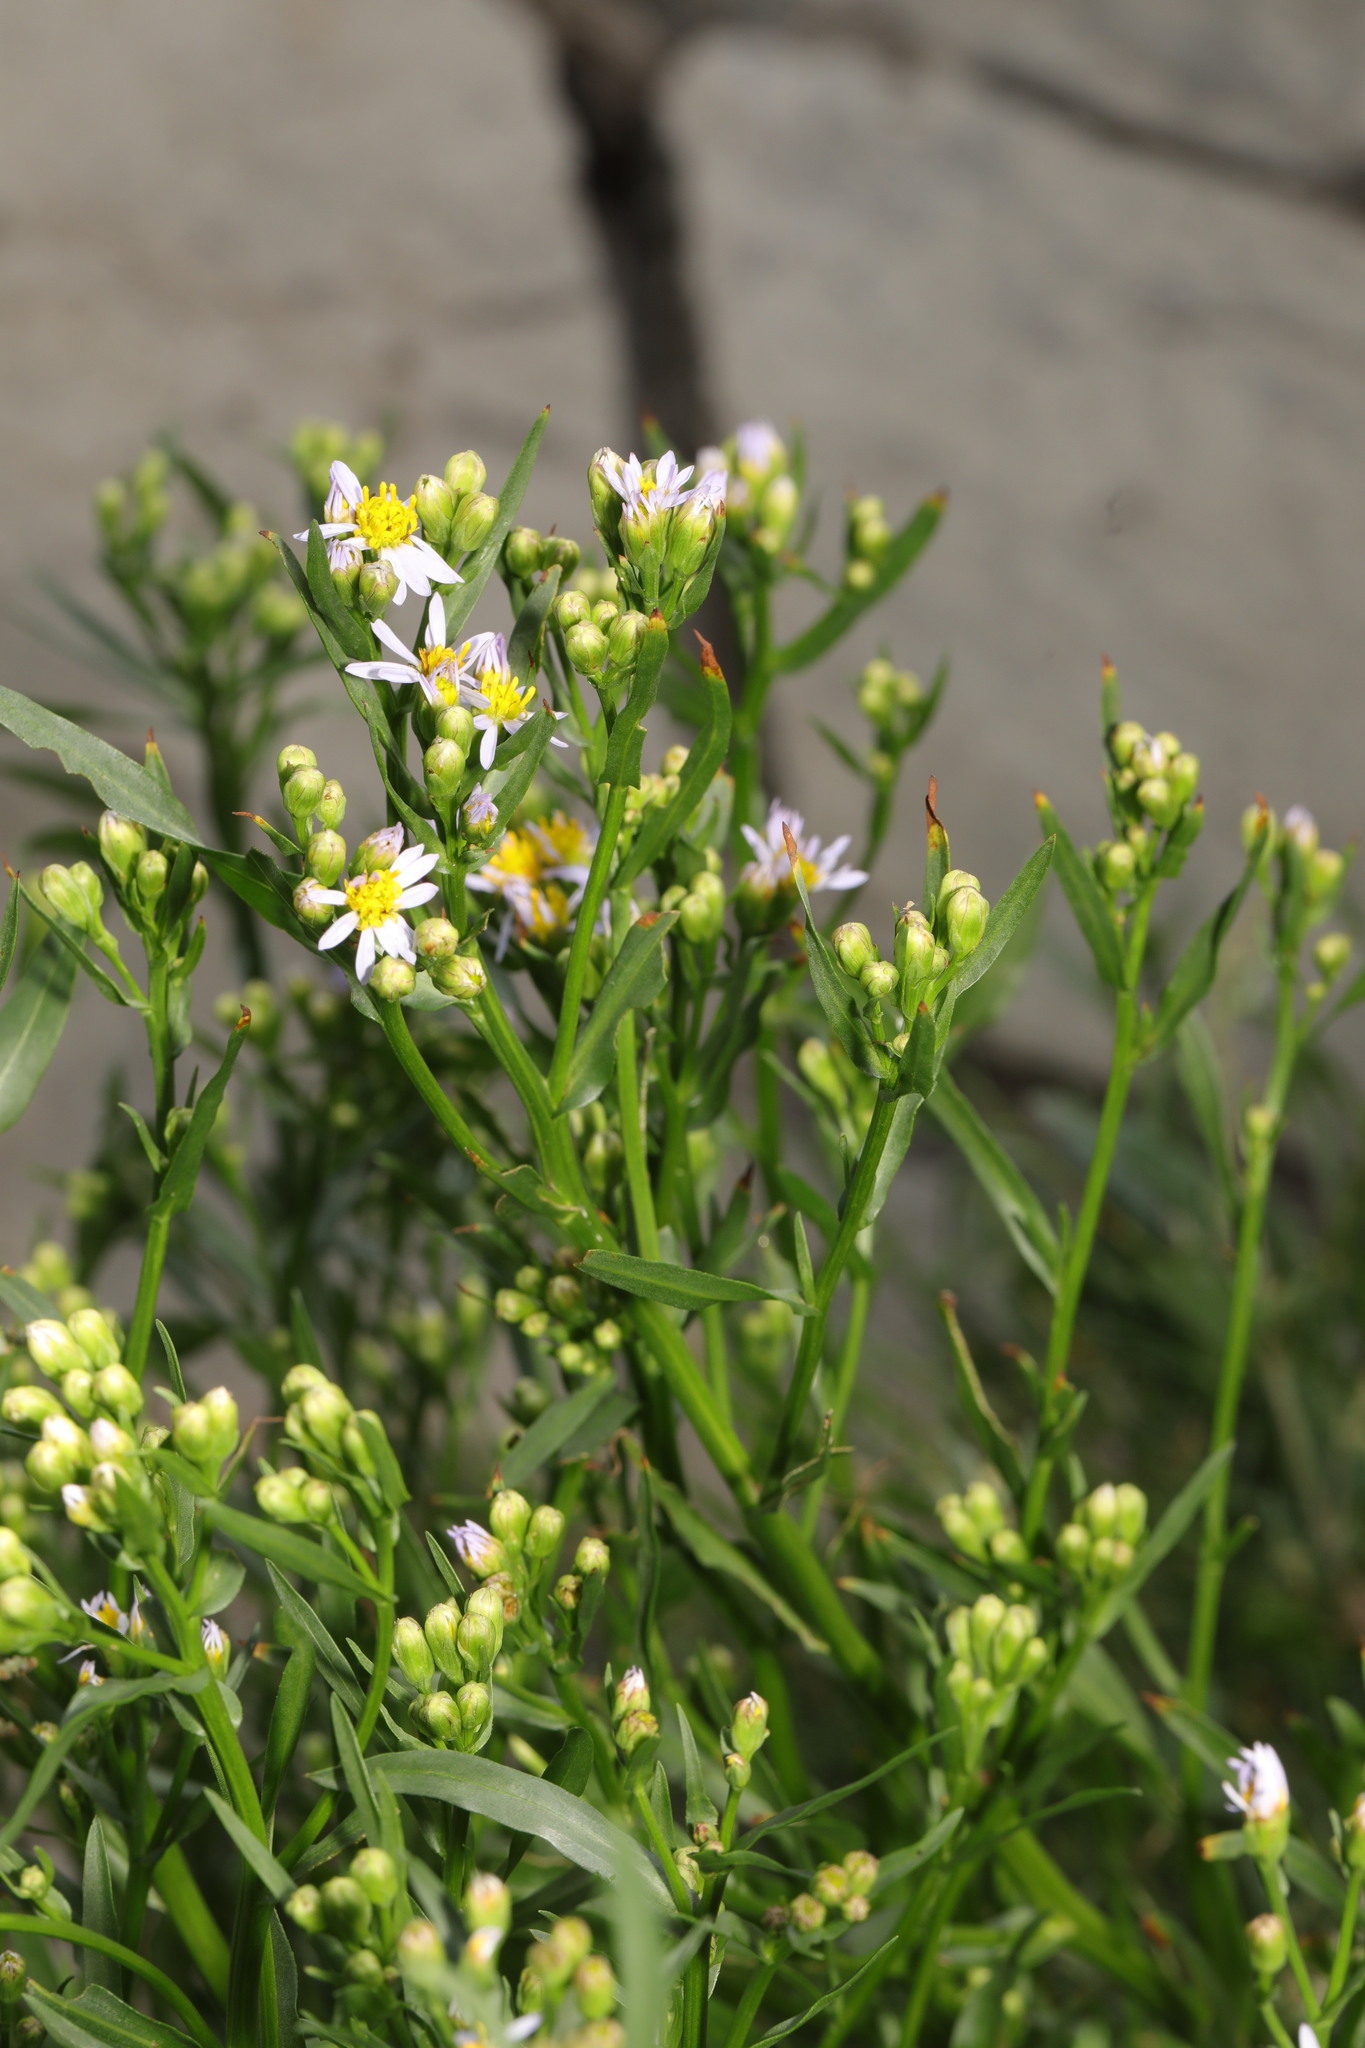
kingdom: Plantae
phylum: Tracheophyta
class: Magnoliopsida
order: Asterales
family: Asteraceae
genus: Tripolium
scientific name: Tripolium pannonicum
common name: Sea aster
